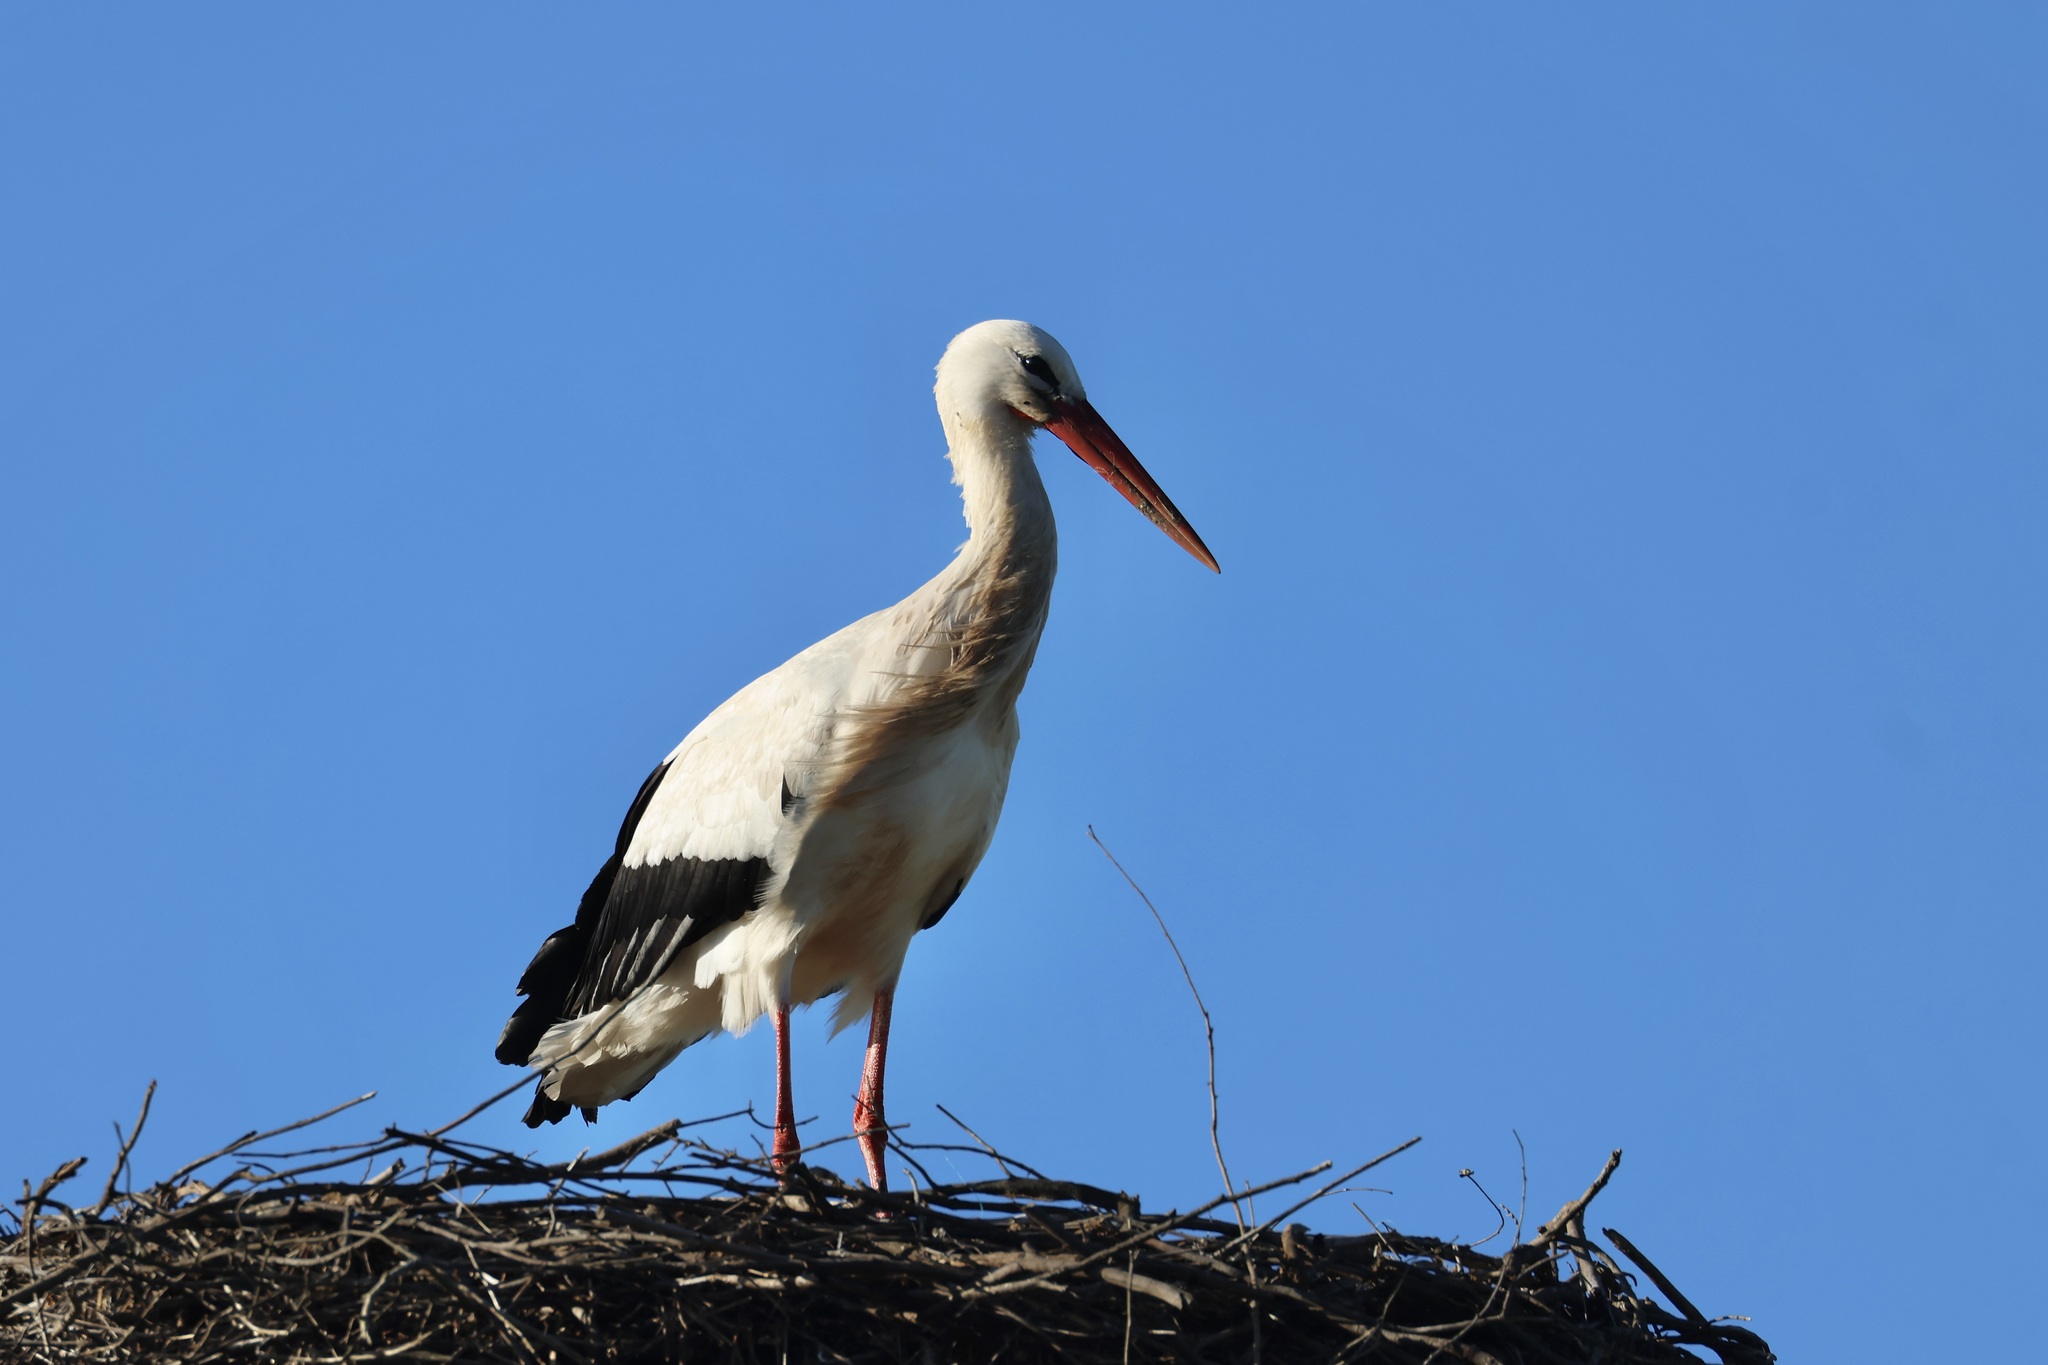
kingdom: Animalia
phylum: Chordata
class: Aves
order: Ciconiiformes
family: Ciconiidae
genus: Ciconia
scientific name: Ciconia ciconia
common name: White stork
